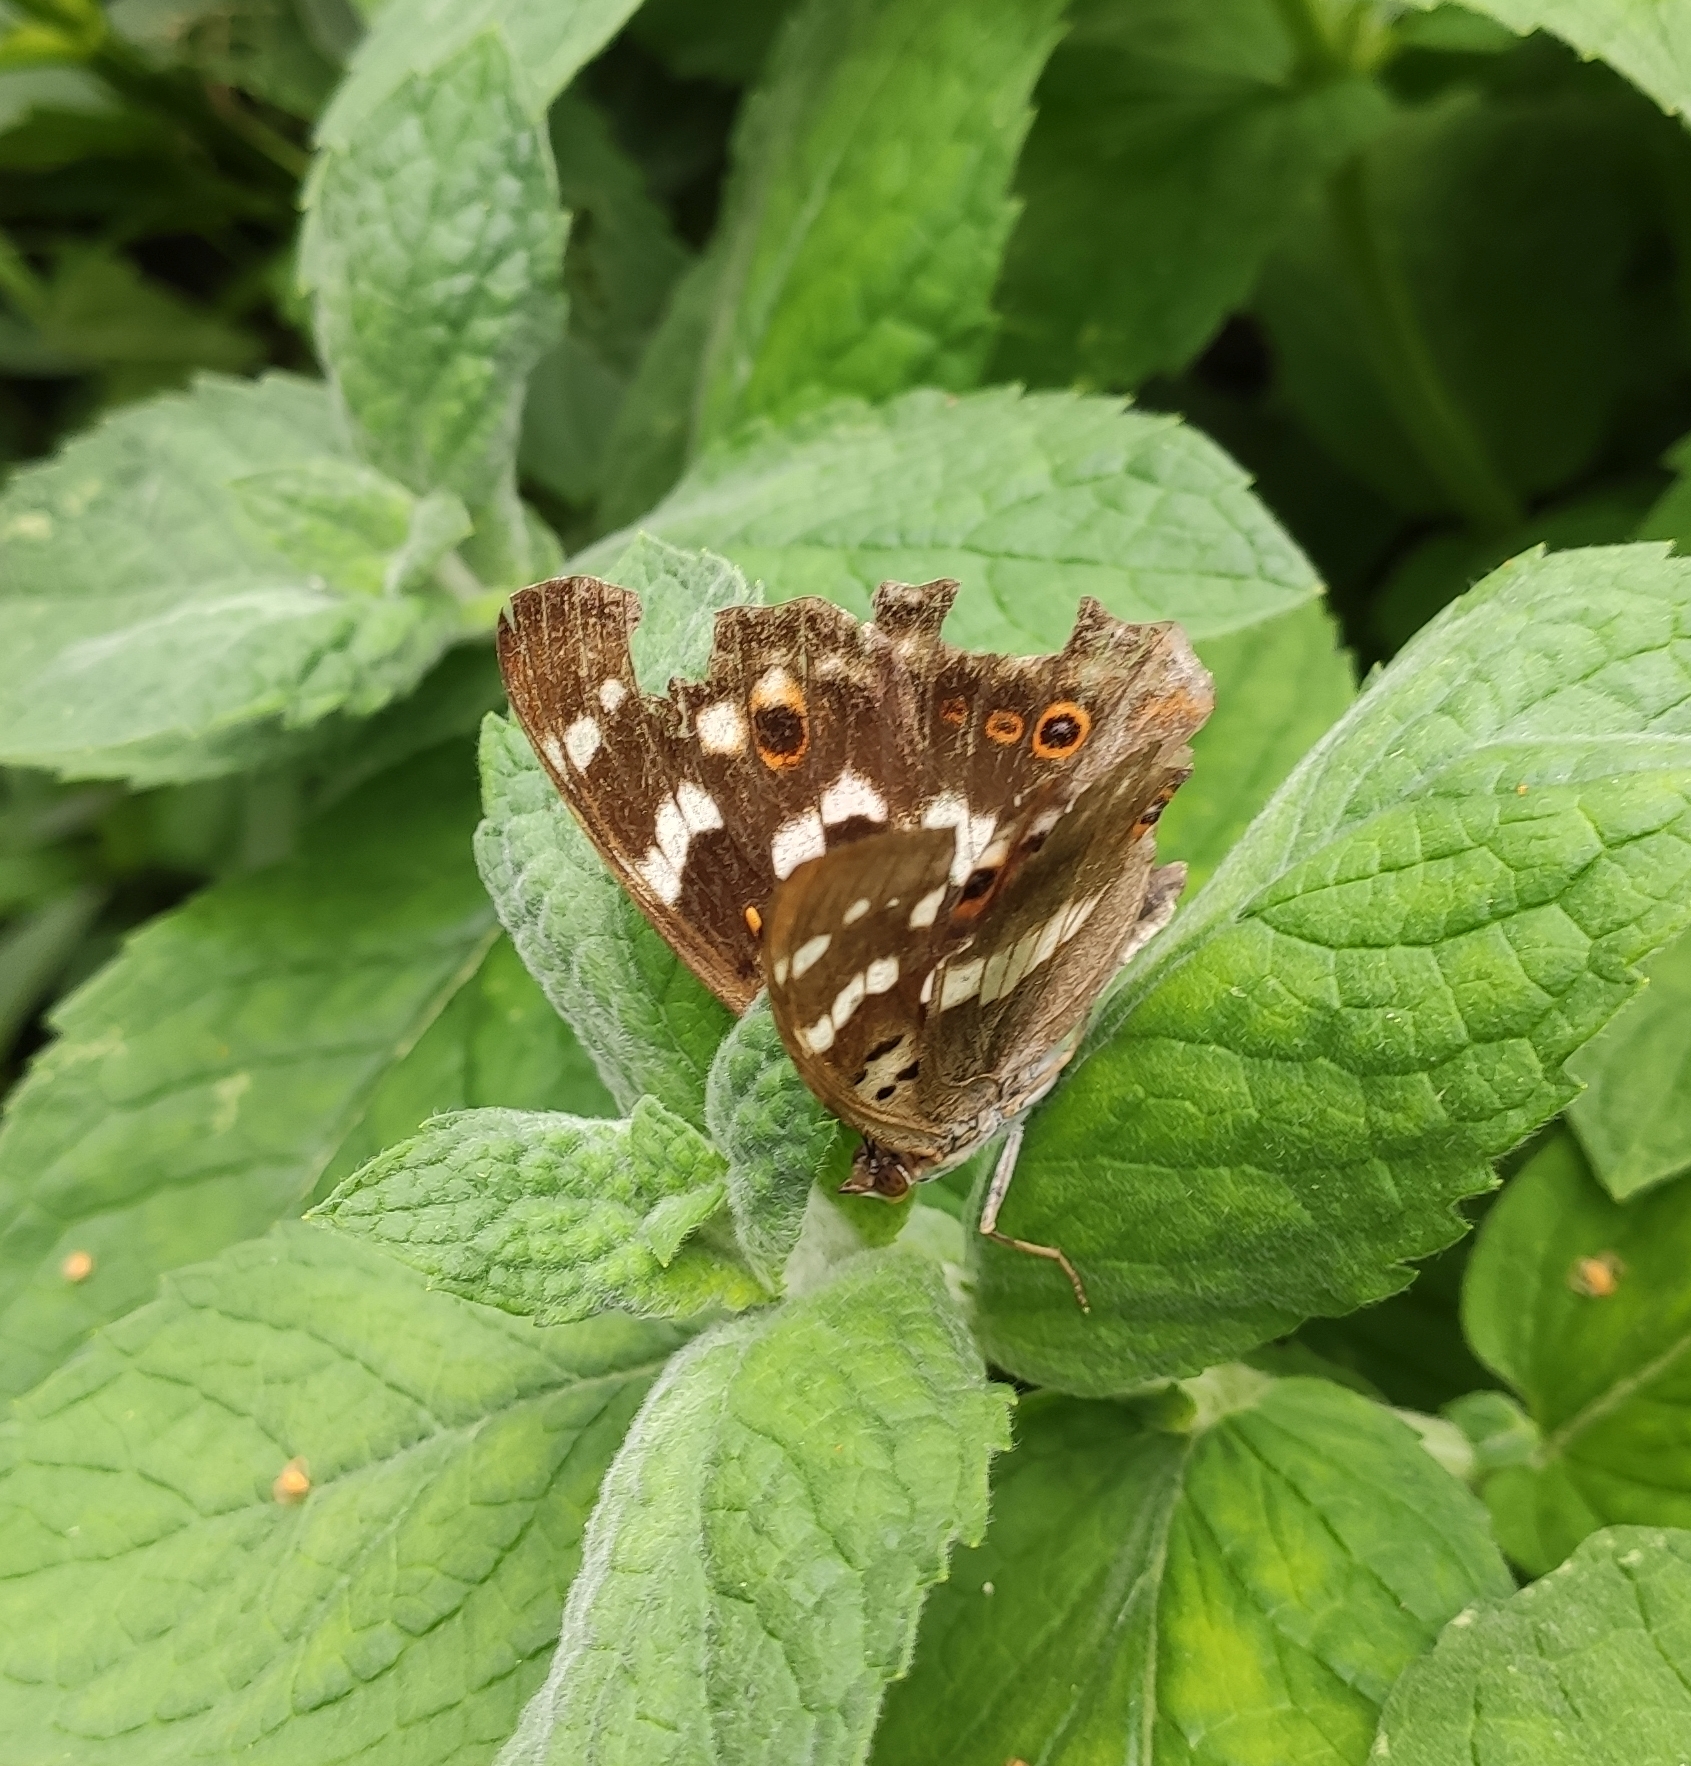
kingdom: Animalia
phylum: Arthropoda
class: Insecta
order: Lepidoptera
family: Nymphalidae
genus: Apatura
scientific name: Apatura ilia
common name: Lesser purple emperor
